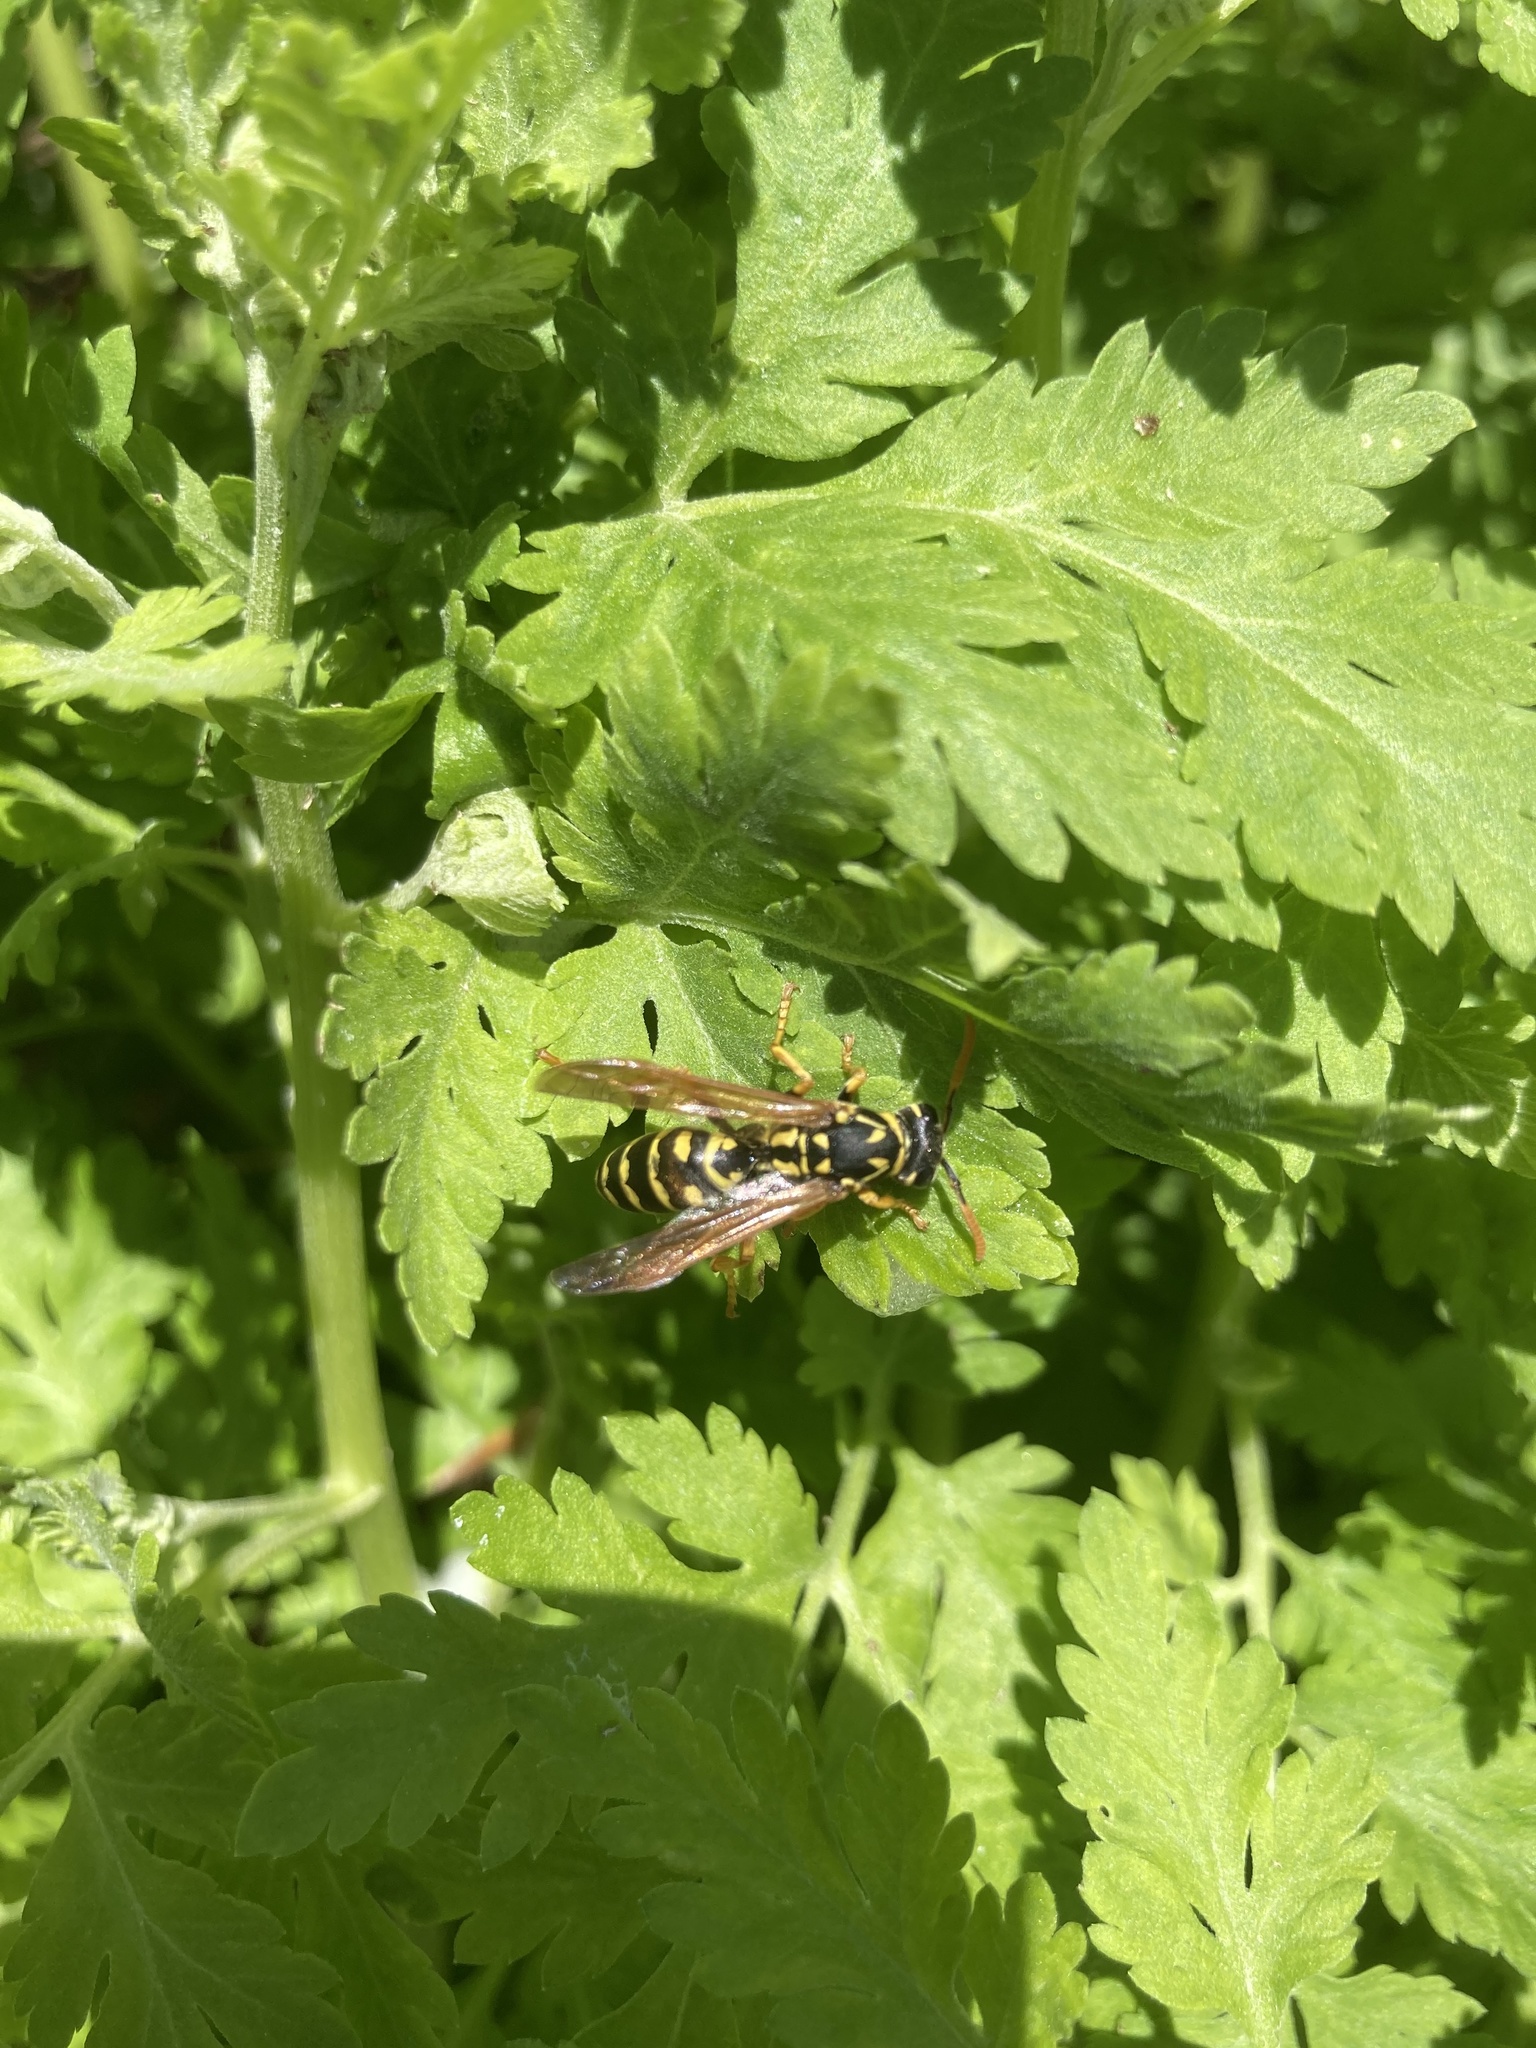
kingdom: Animalia
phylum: Arthropoda
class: Insecta
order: Hymenoptera
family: Eumenidae
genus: Polistes
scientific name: Polistes dominula
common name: Paper wasp
